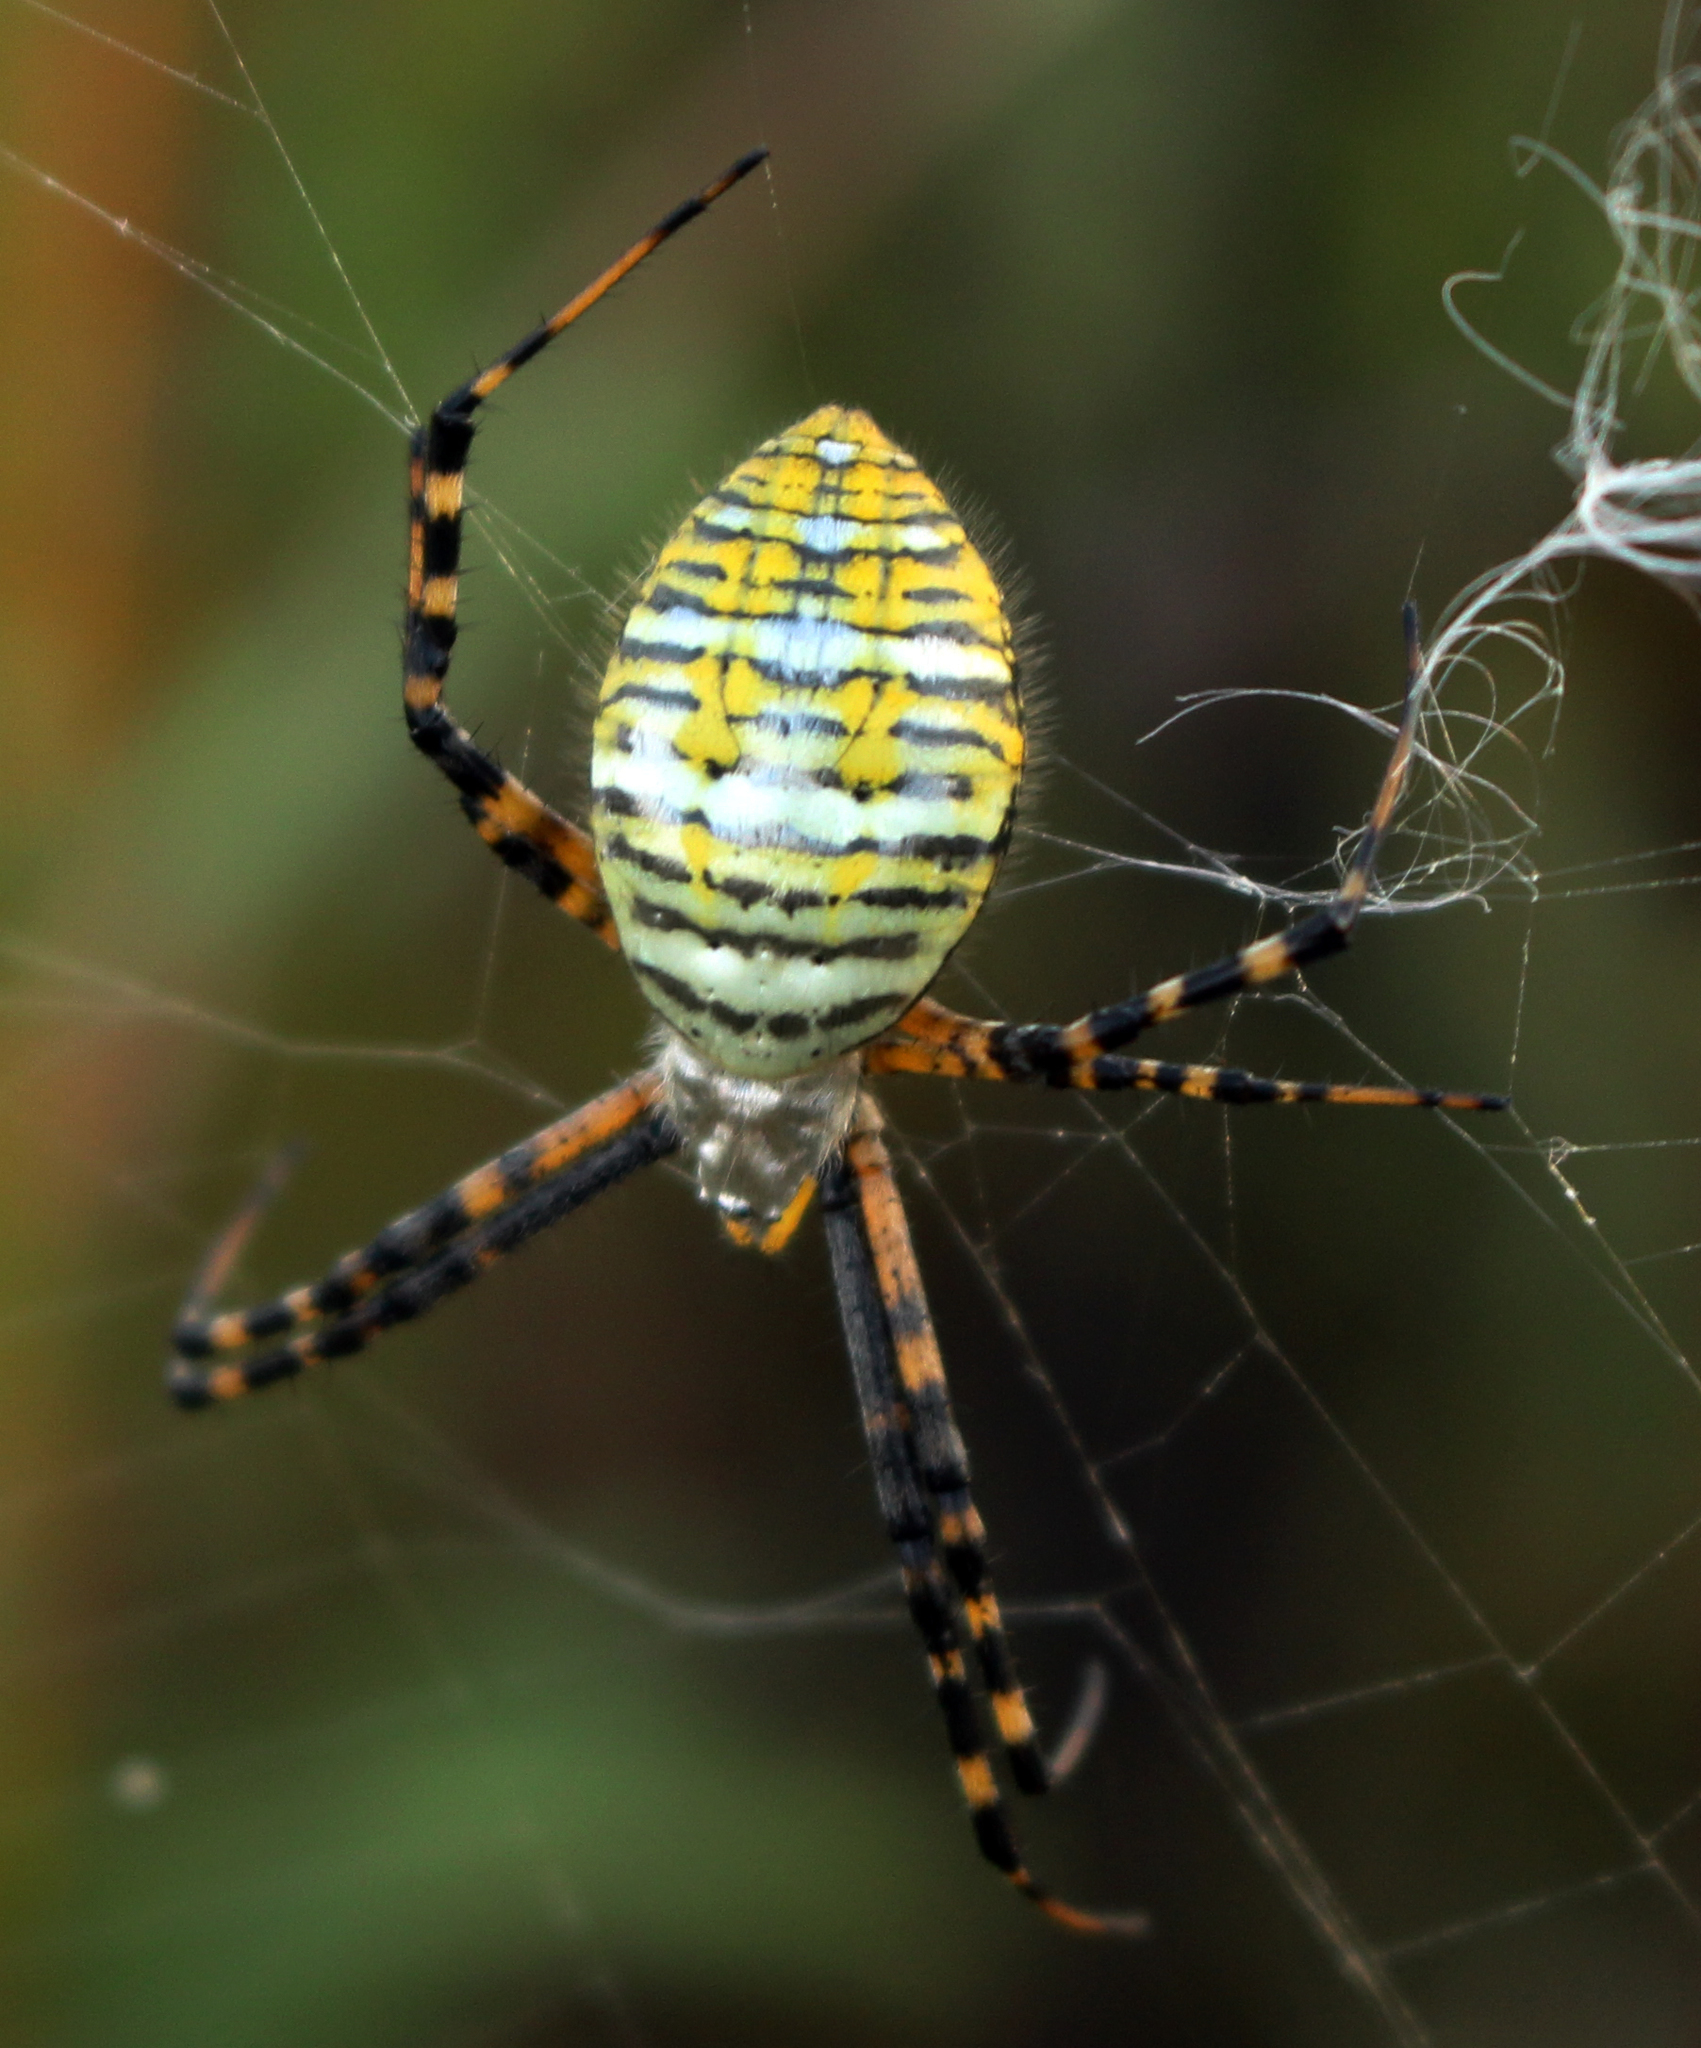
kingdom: Animalia
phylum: Arthropoda
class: Arachnida
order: Araneae
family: Araneidae
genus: Argiope
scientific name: Argiope trifasciata
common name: Banded garden spider
